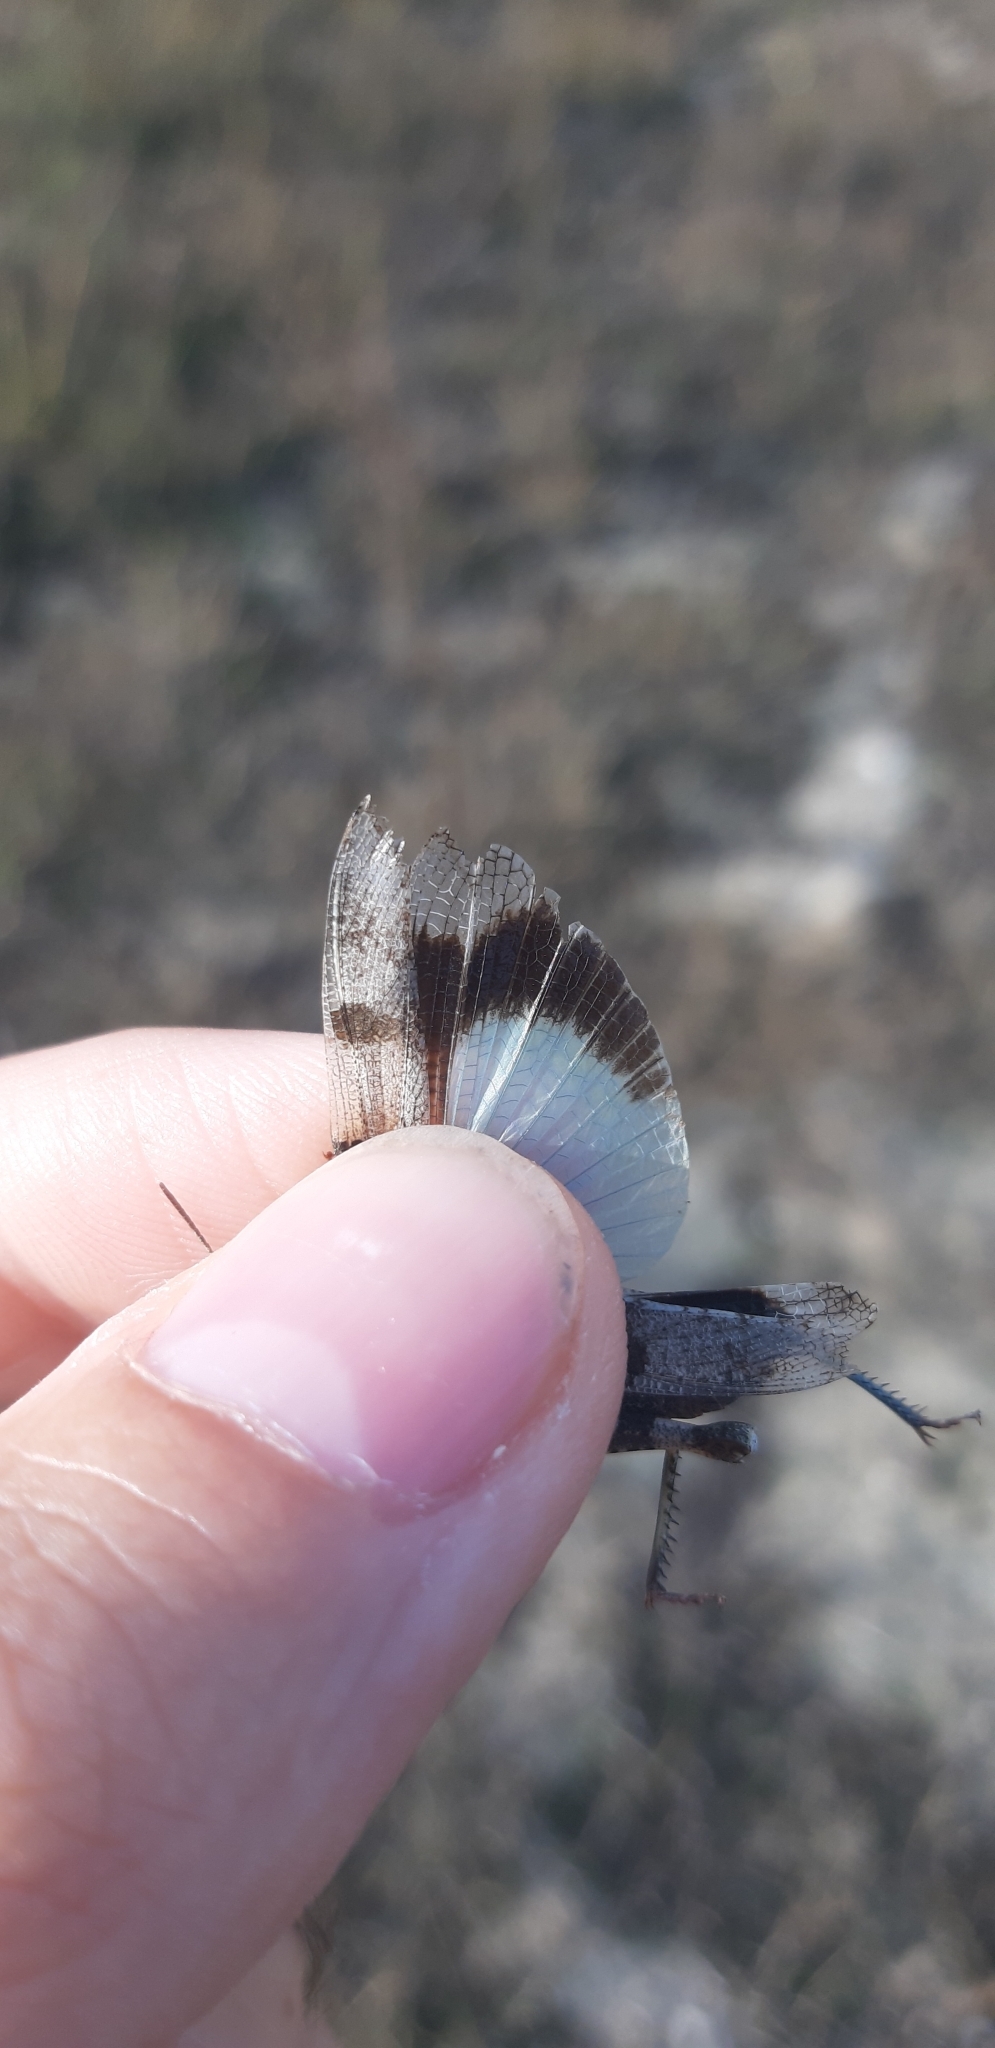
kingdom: Animalia
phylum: Arthropoda
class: Insecta
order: Orthoptera
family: Acrididae
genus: Oedipoda
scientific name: Oedipoda caerulescens
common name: Blue-winged grasshopper
